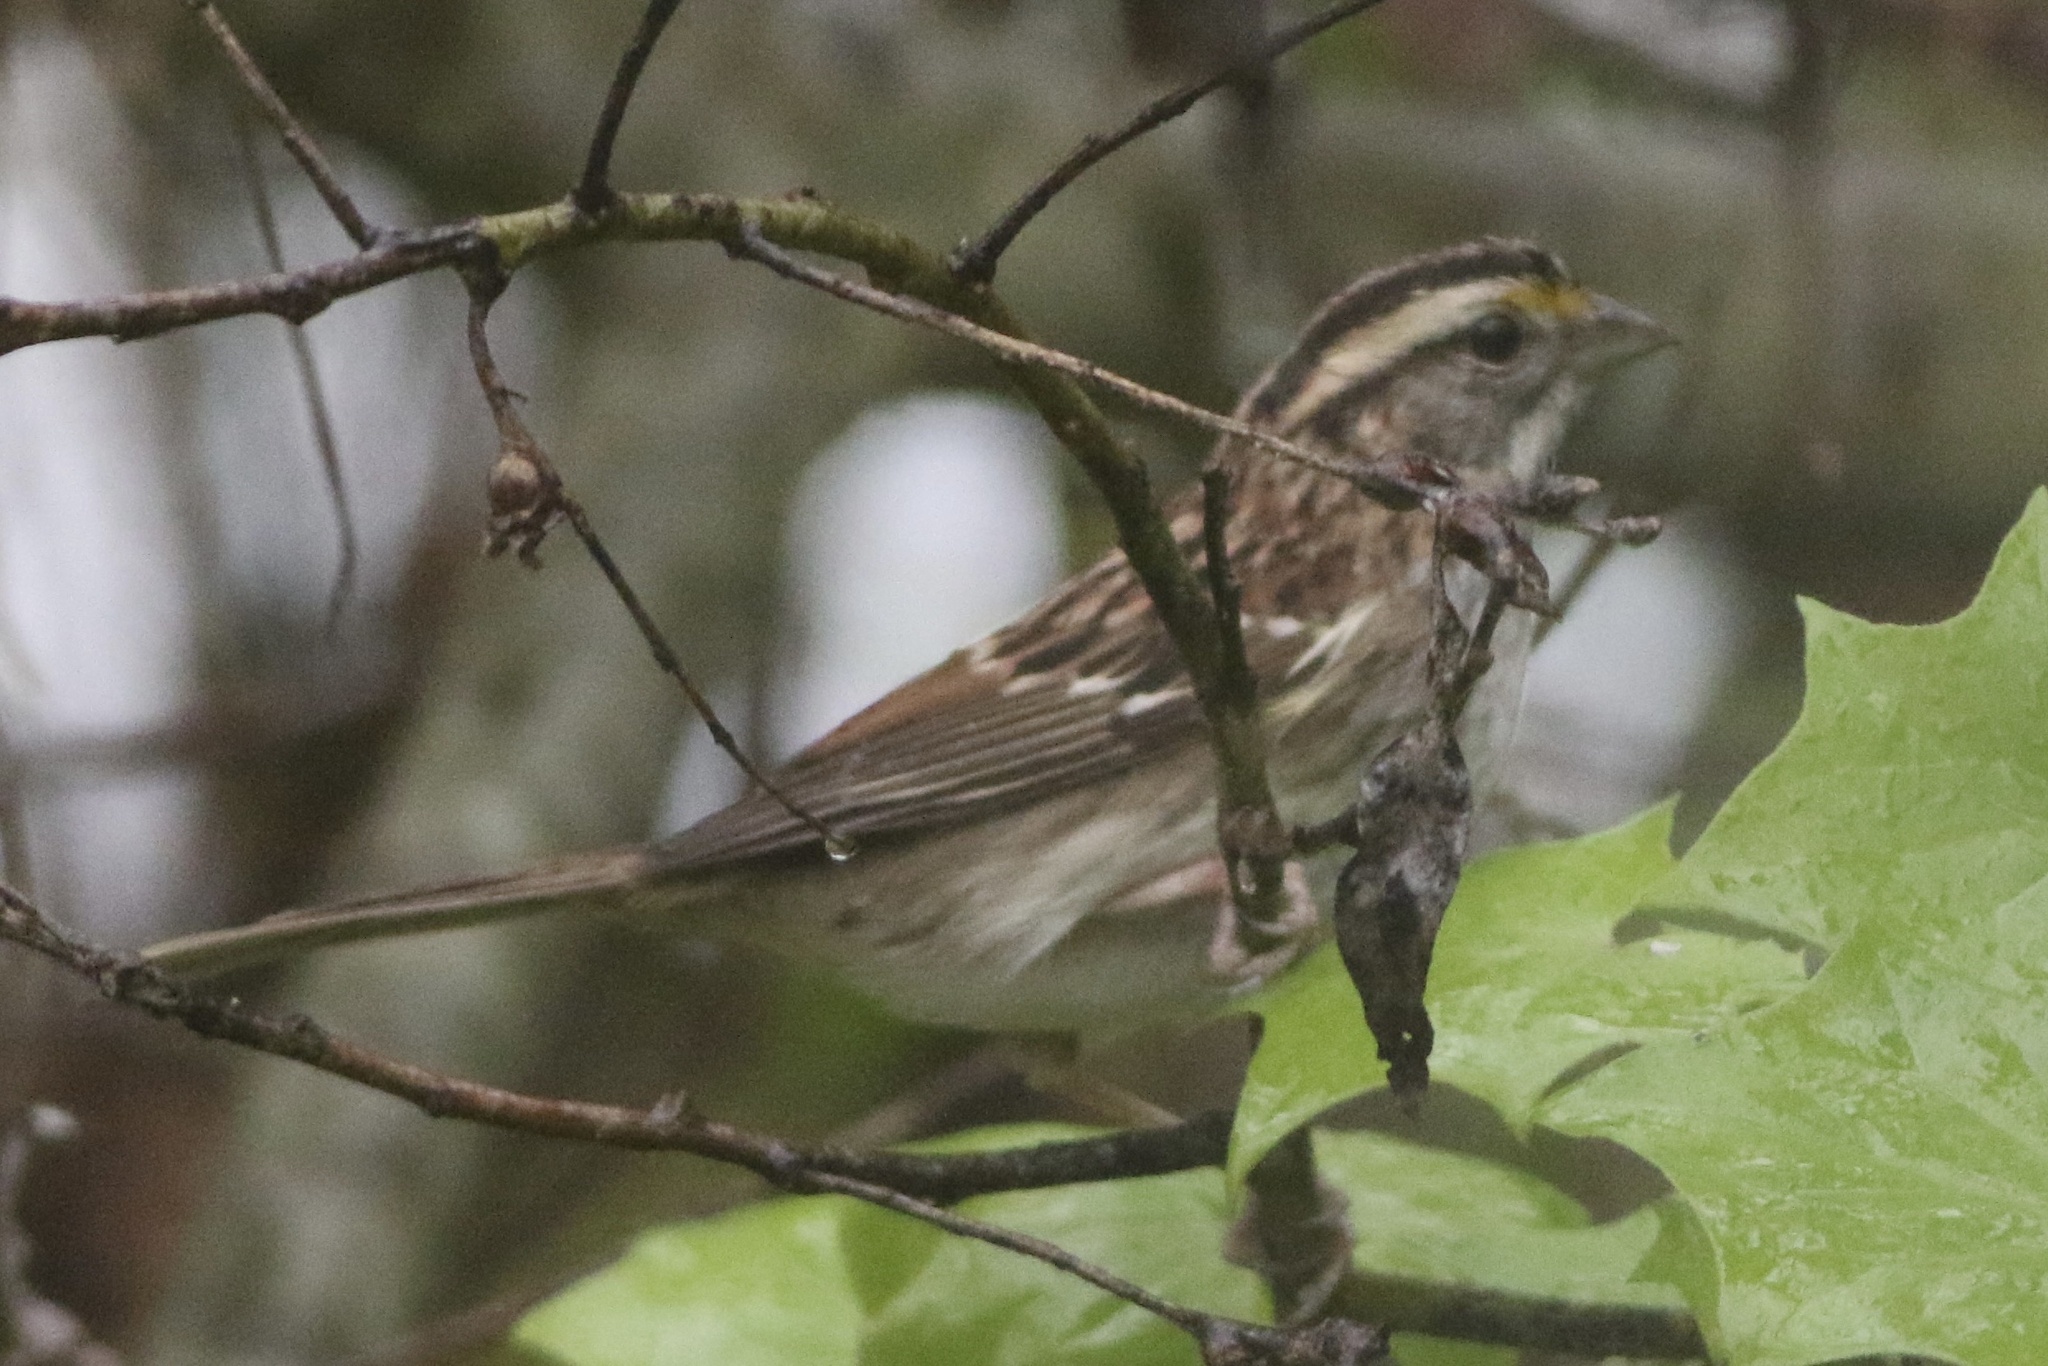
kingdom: Animalia
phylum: Chordata
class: Aves
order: Passeriformes
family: Passerellidae
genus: Zonotrichia
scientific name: Zonotrichia albicollis
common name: White-throated sparrow
